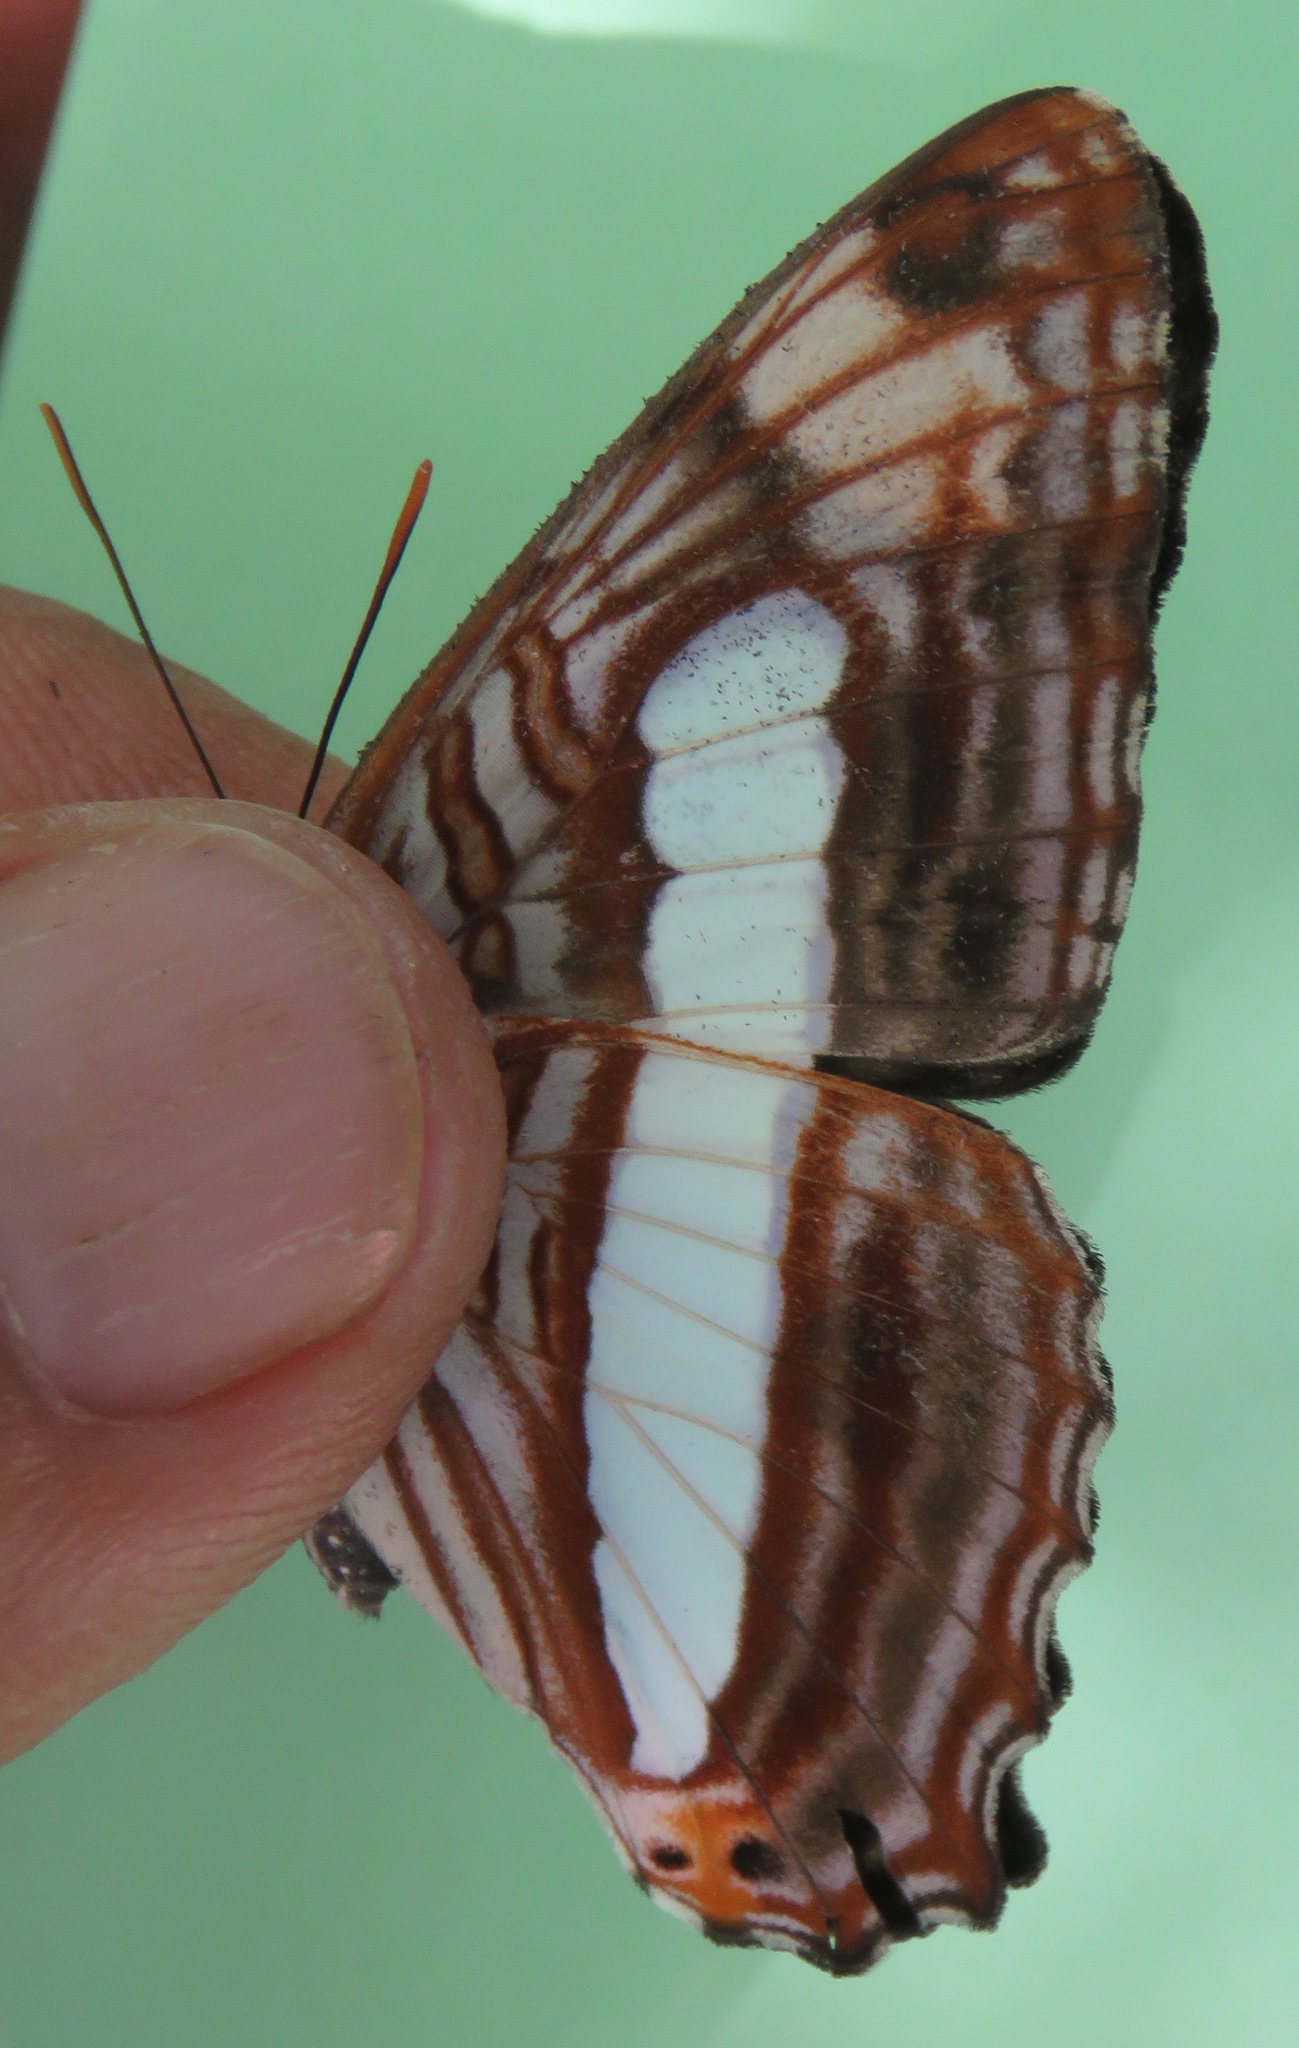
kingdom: Animalia
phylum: Arthropoda
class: Insecta
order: Lepidoptera
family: Nymphalidae
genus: Limenitis
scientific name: Limenitis iphiclus
